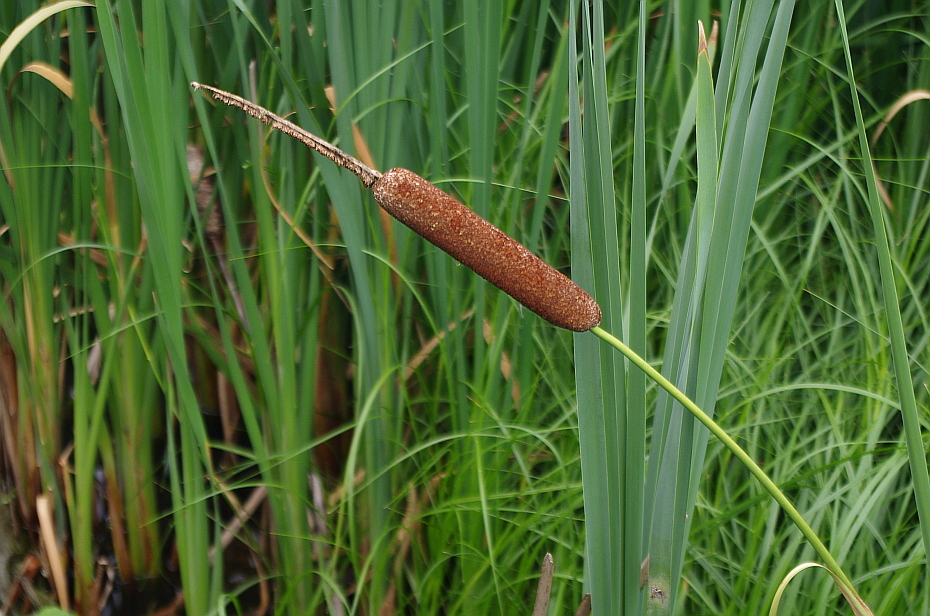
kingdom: Plantae
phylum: Tracheophyta
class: Liliopsida
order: Poales
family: Typhaceae
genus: Typha
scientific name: Typha latifolia
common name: Broadleaf cattail
